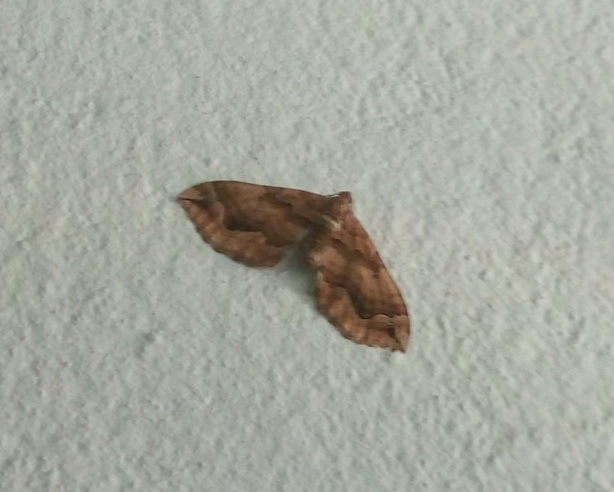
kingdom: Animalia
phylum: Arthropoda
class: Insecta
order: Lepidoptera
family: Geometridae
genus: Pelurga
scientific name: Pelurga comitata
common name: Dark spinach
